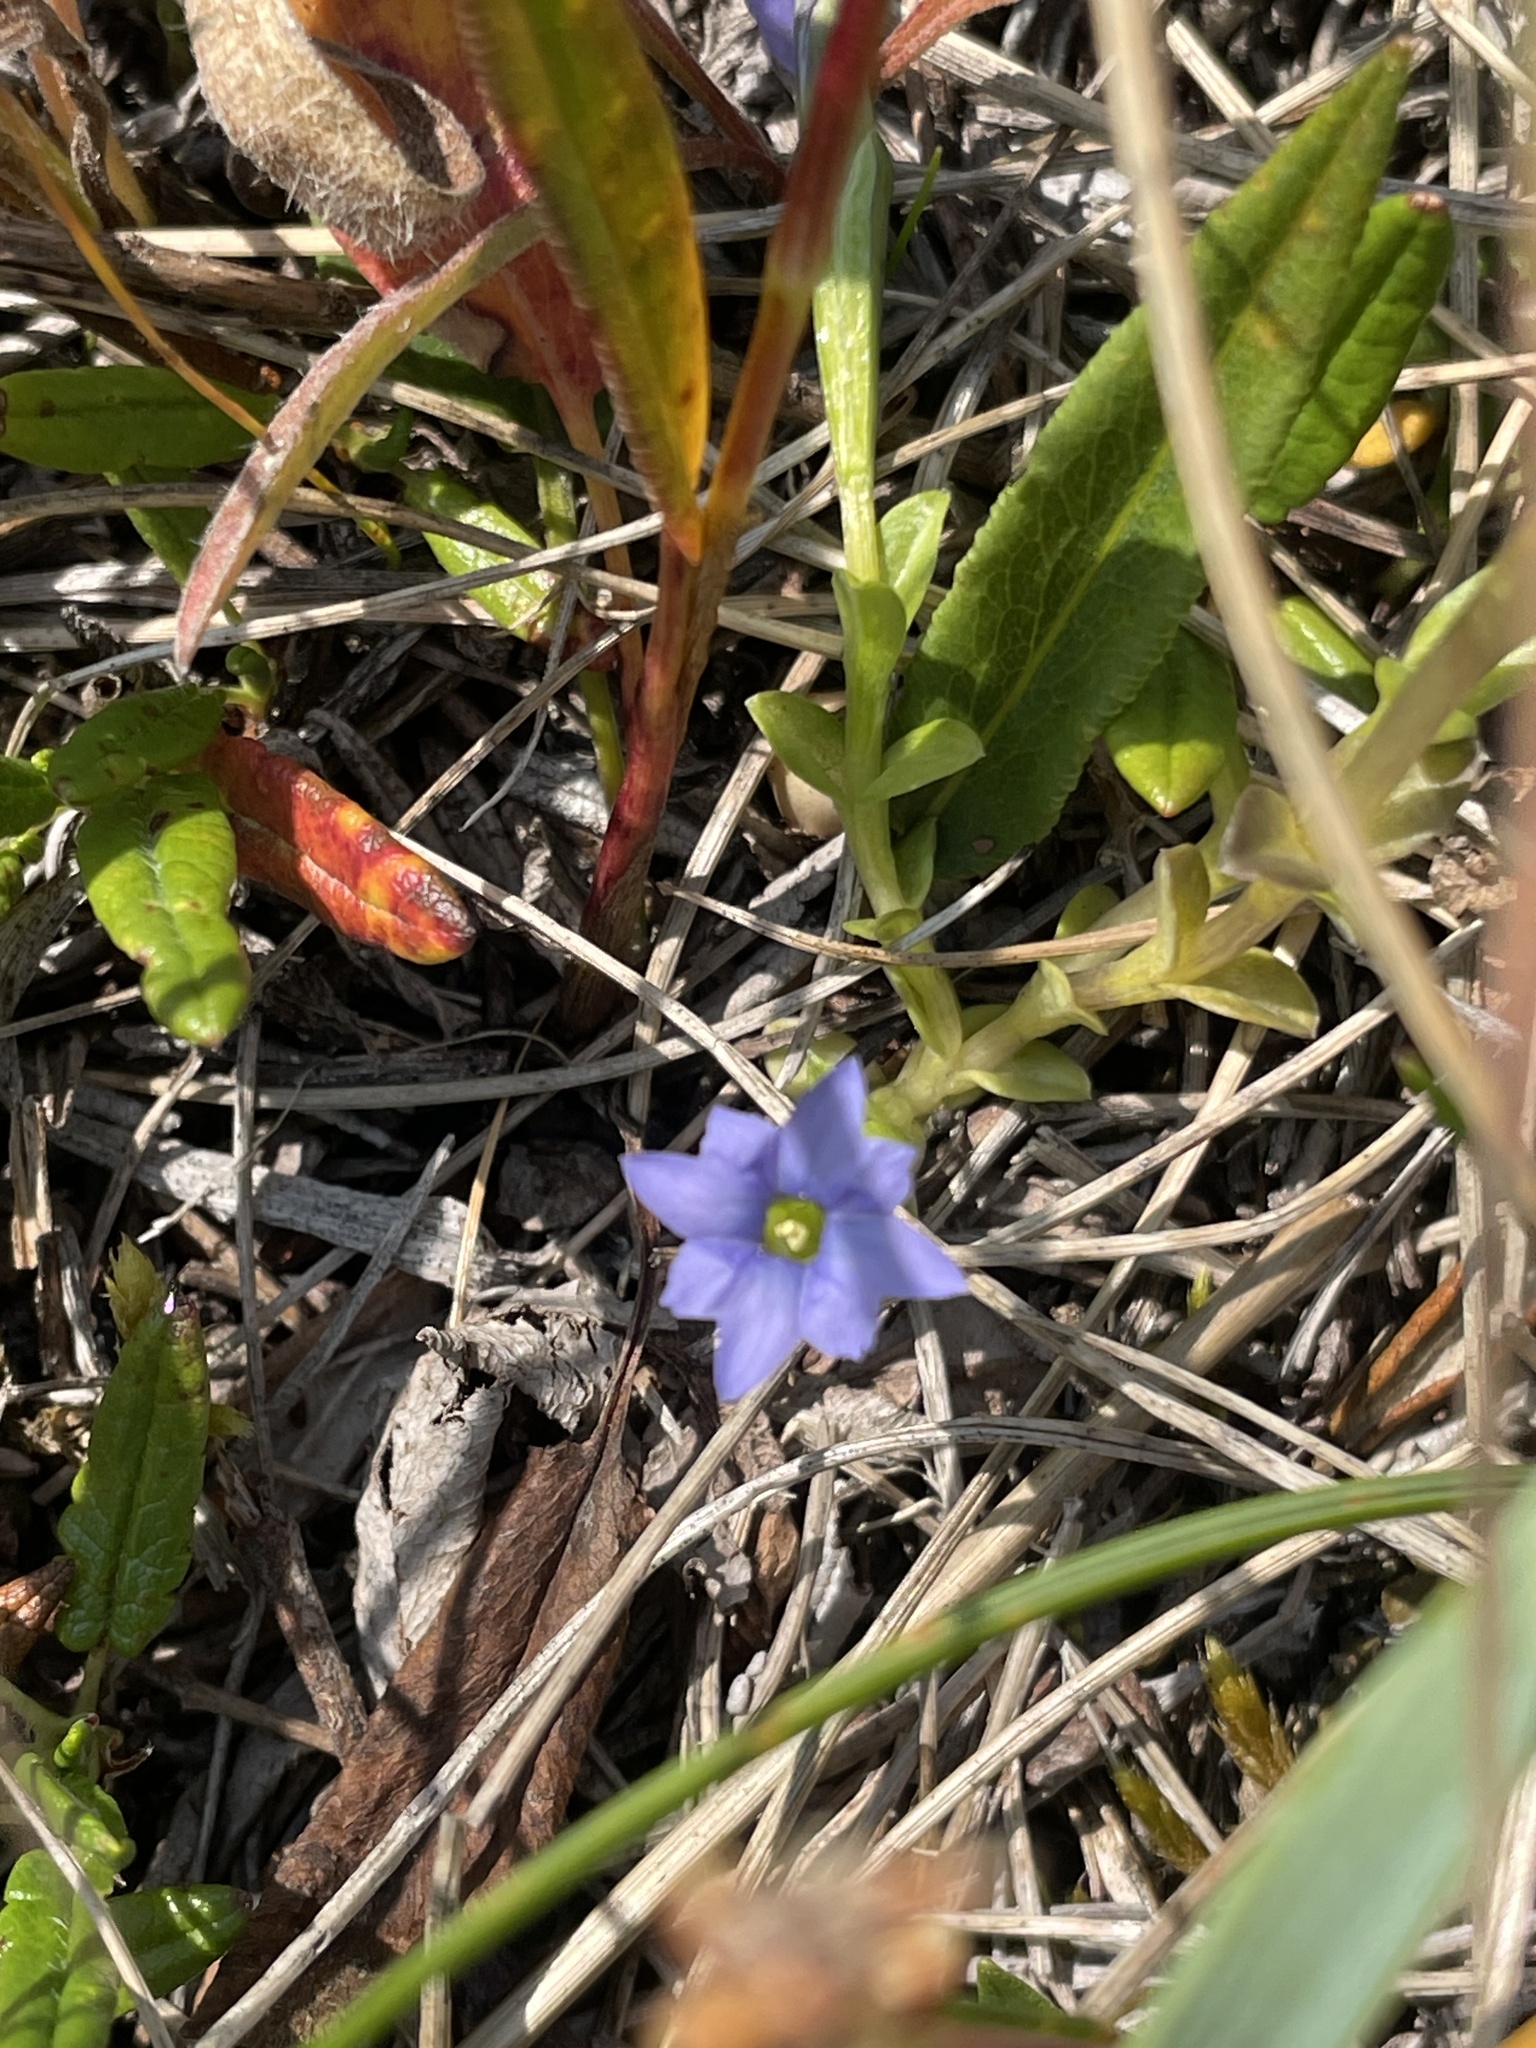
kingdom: Plantae
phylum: Tracheophyta
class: Magnoliopsida
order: Gentianales
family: Gentianaceae
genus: Gentiana
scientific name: Gentiana prostrata
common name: Moss gentian
